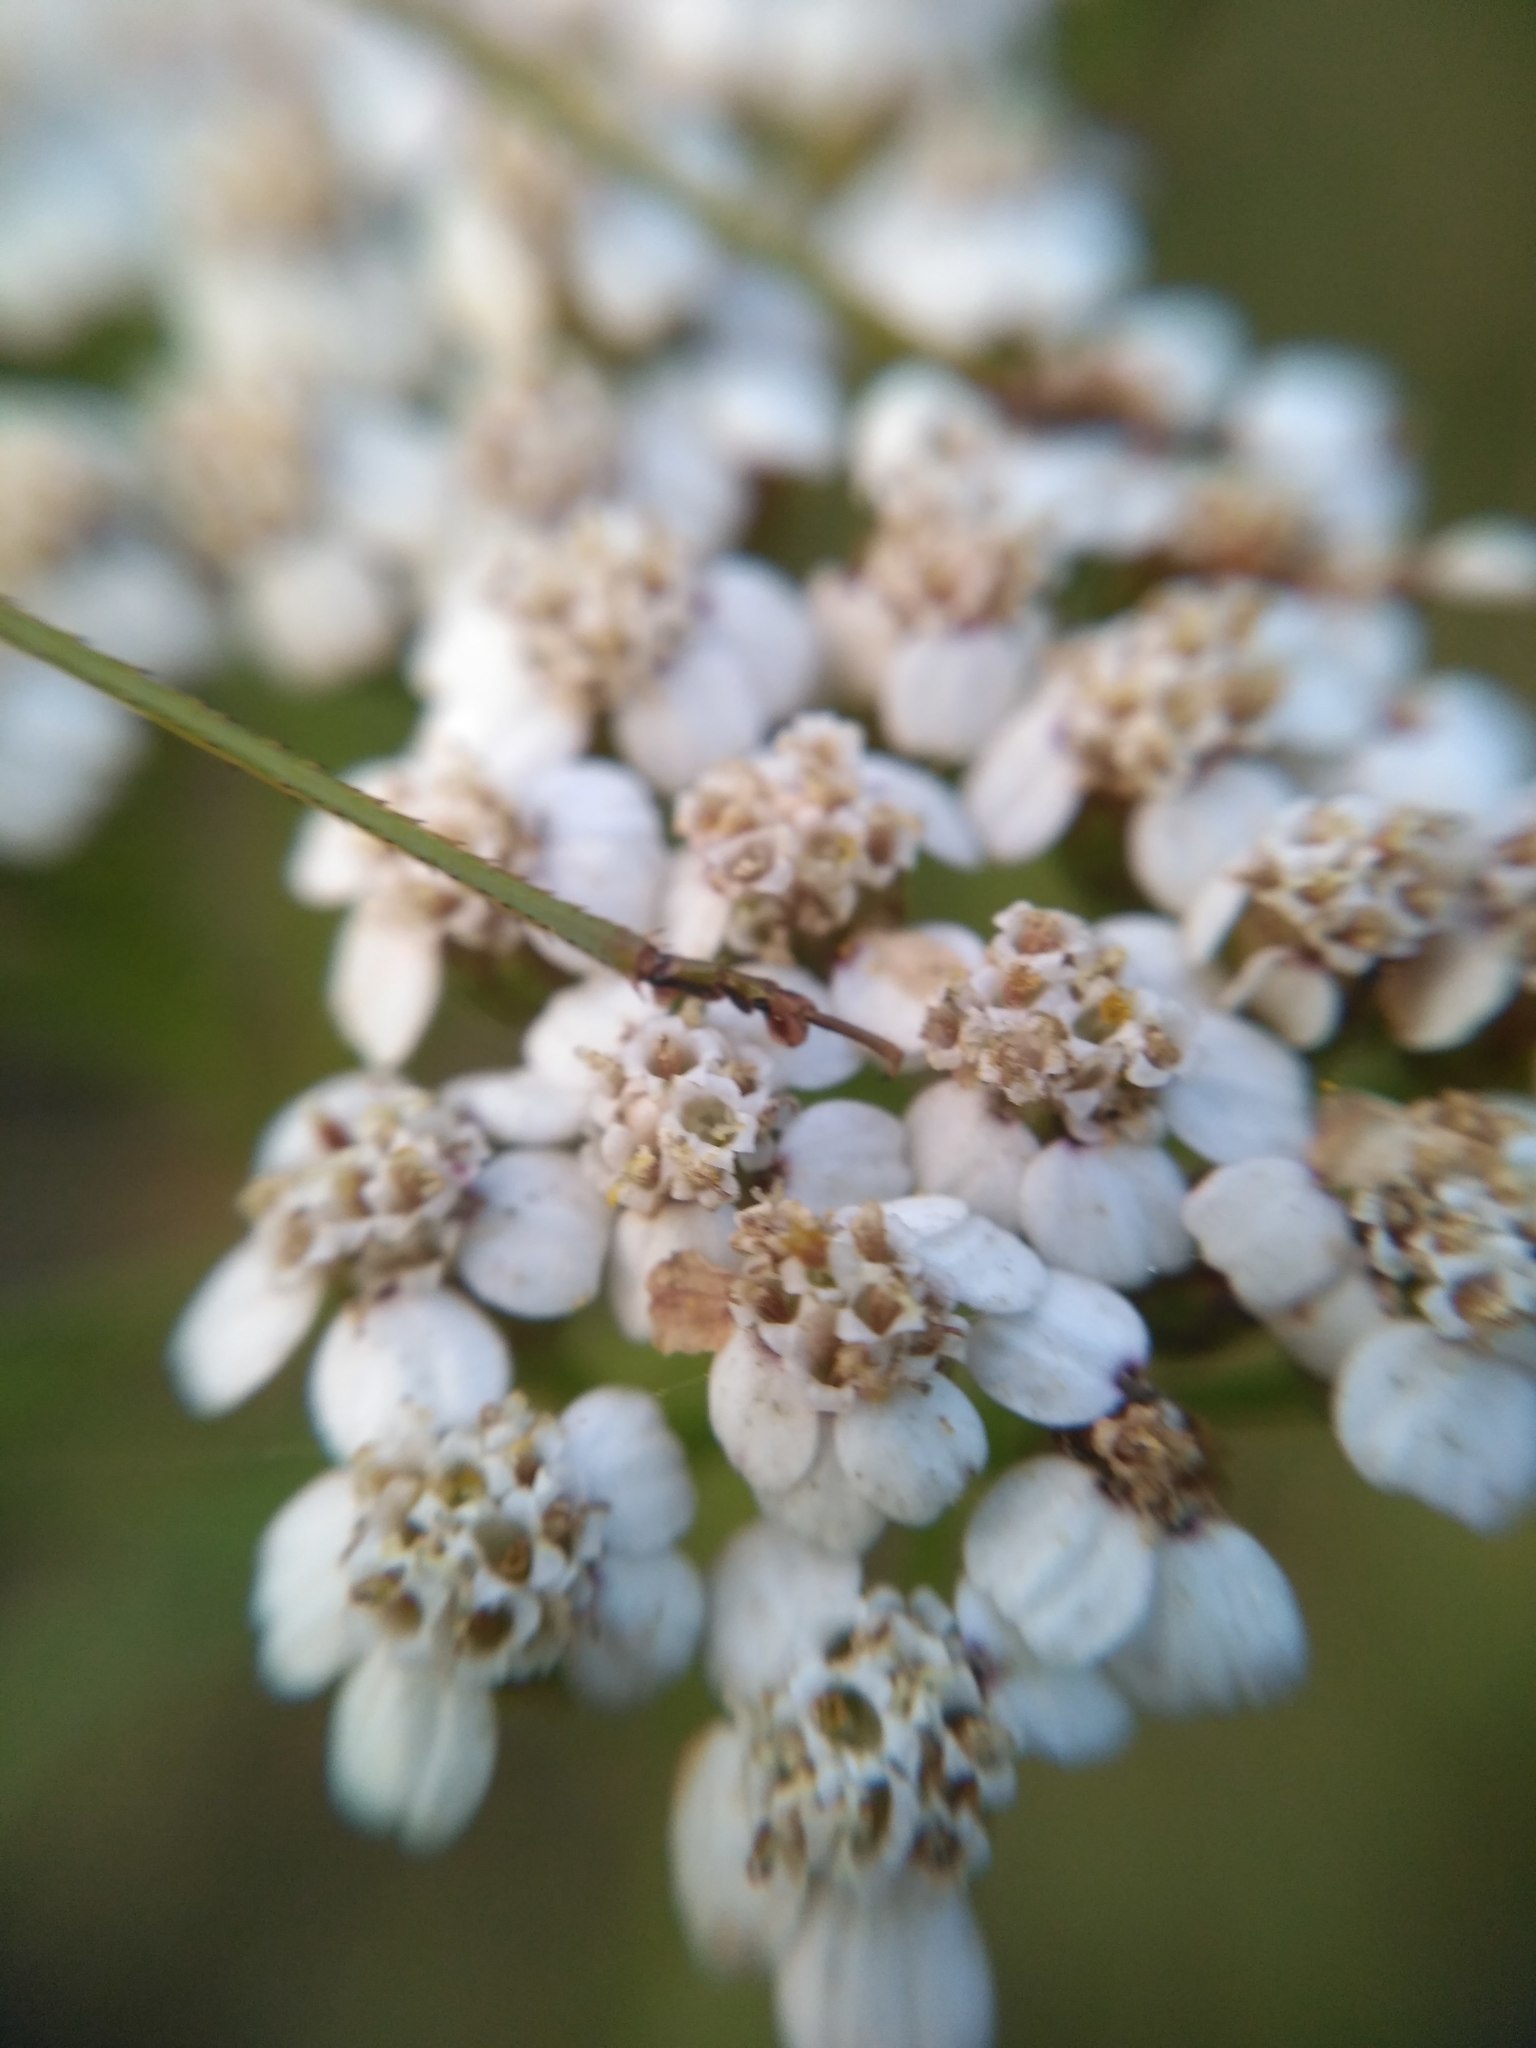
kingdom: Animalia
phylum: Arthropoda
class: Insecta
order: Orthoptera
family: Tettigoniidae
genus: Phaneroptera
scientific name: Phaneroptera nana
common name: Southern sickle bush-cricket
